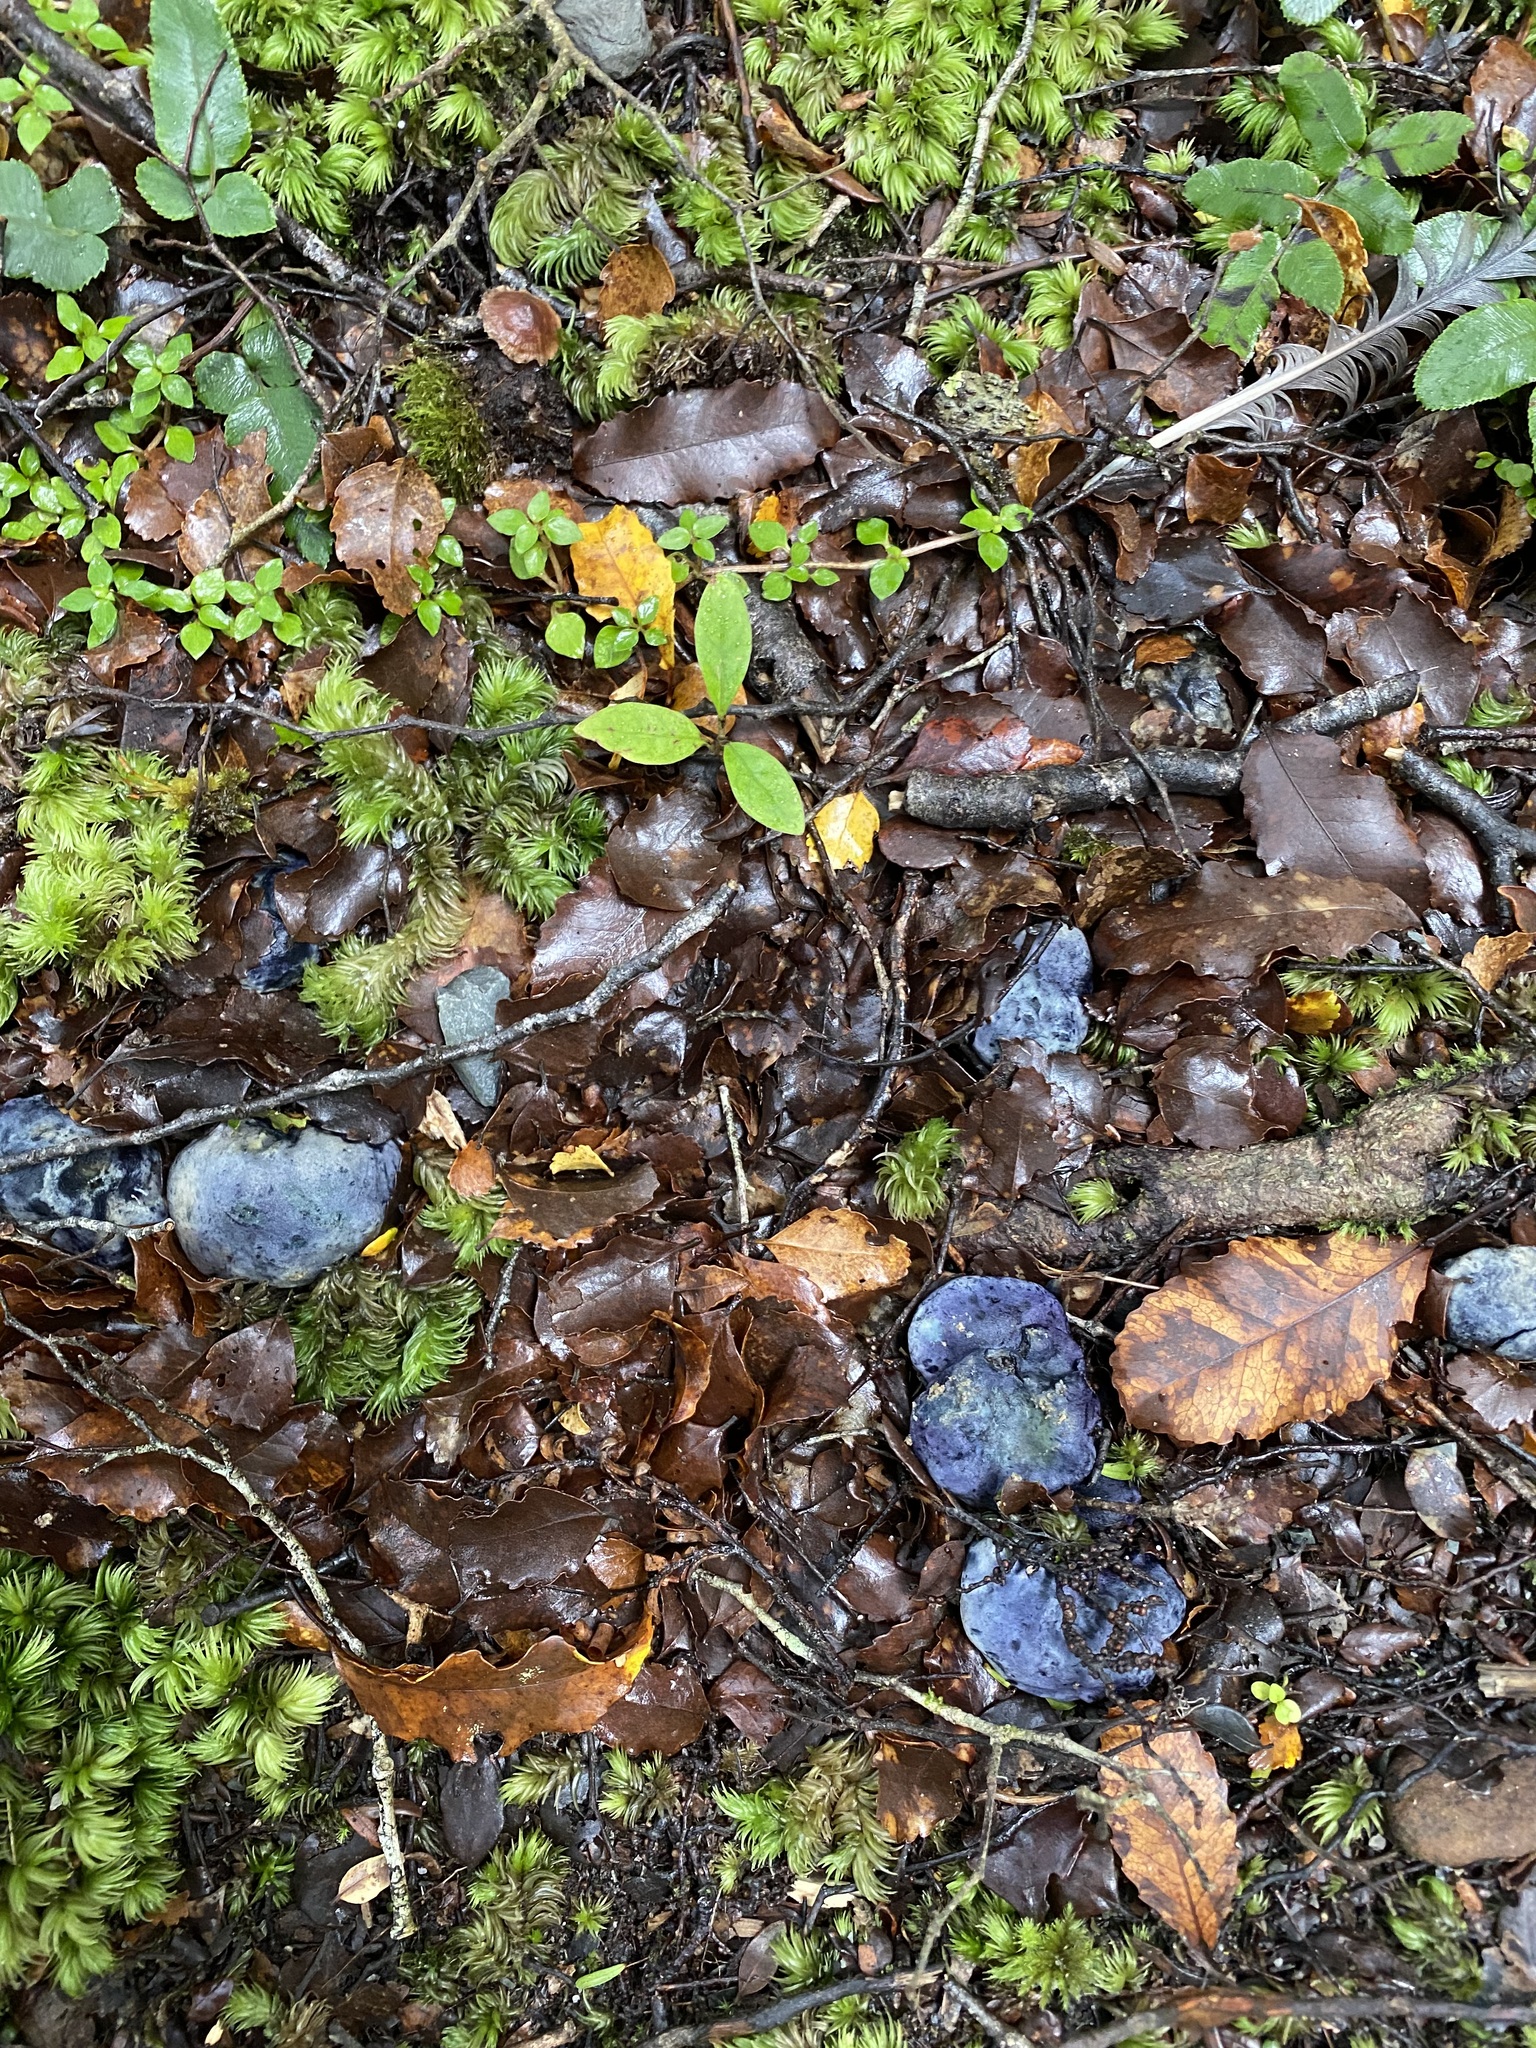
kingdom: Fungi
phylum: Basidiomycota
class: Agaricomycetes
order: Boletales
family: Boletaceae
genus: Leccinum
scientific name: Leccinum pachyderme
